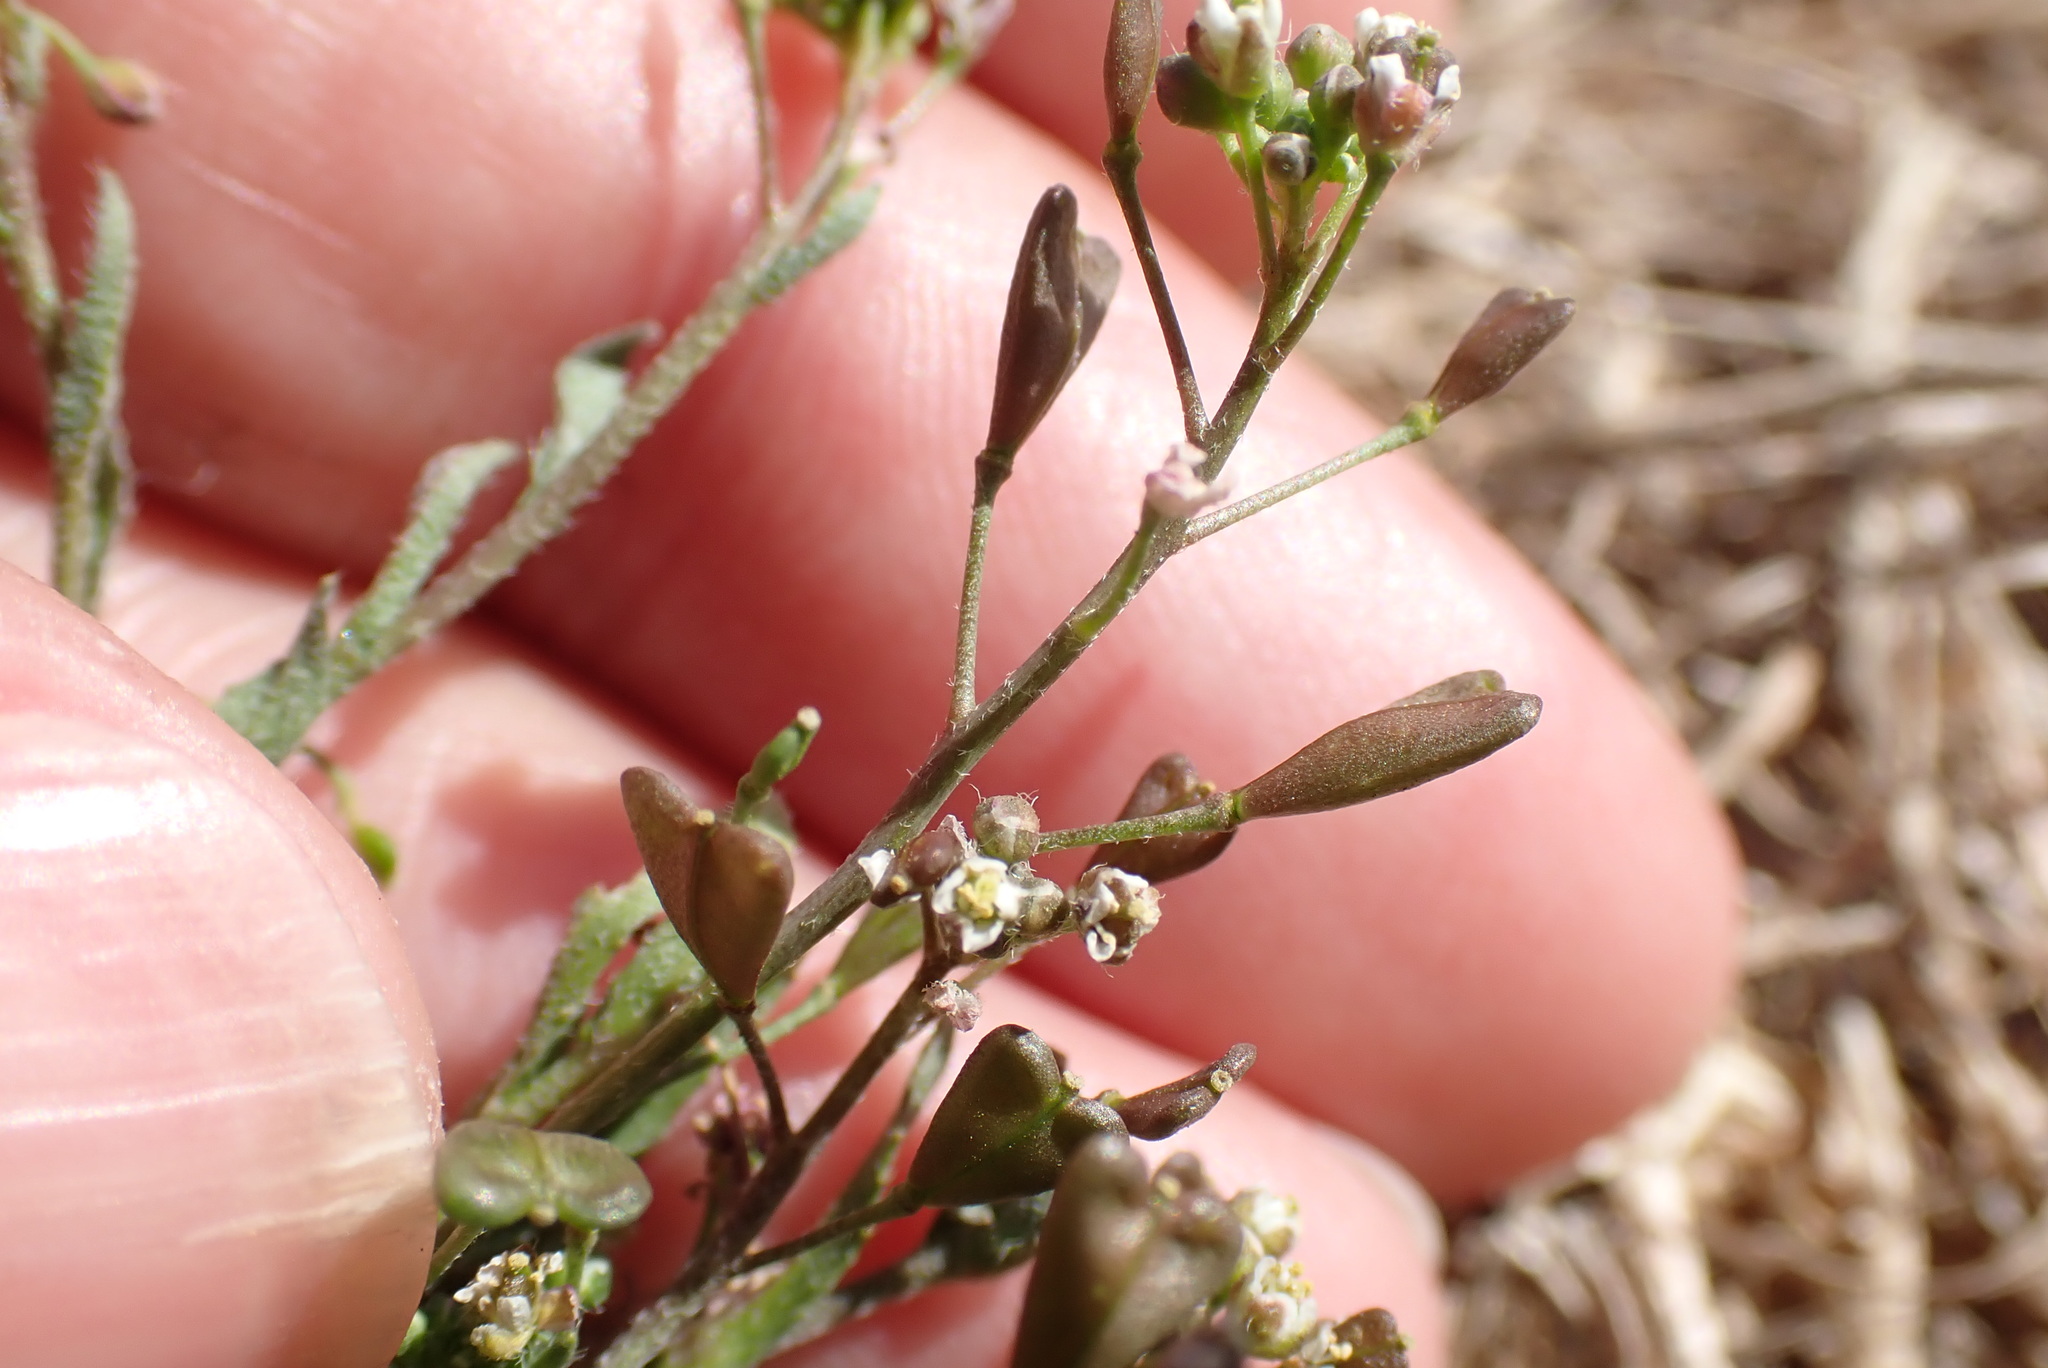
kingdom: Plantae
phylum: Tracheophyta
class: Magnoliopsida
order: Brassicales
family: Brassicaceae
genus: Capsella
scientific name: Capsella bursa-pastoris
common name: Shepherd's purse
